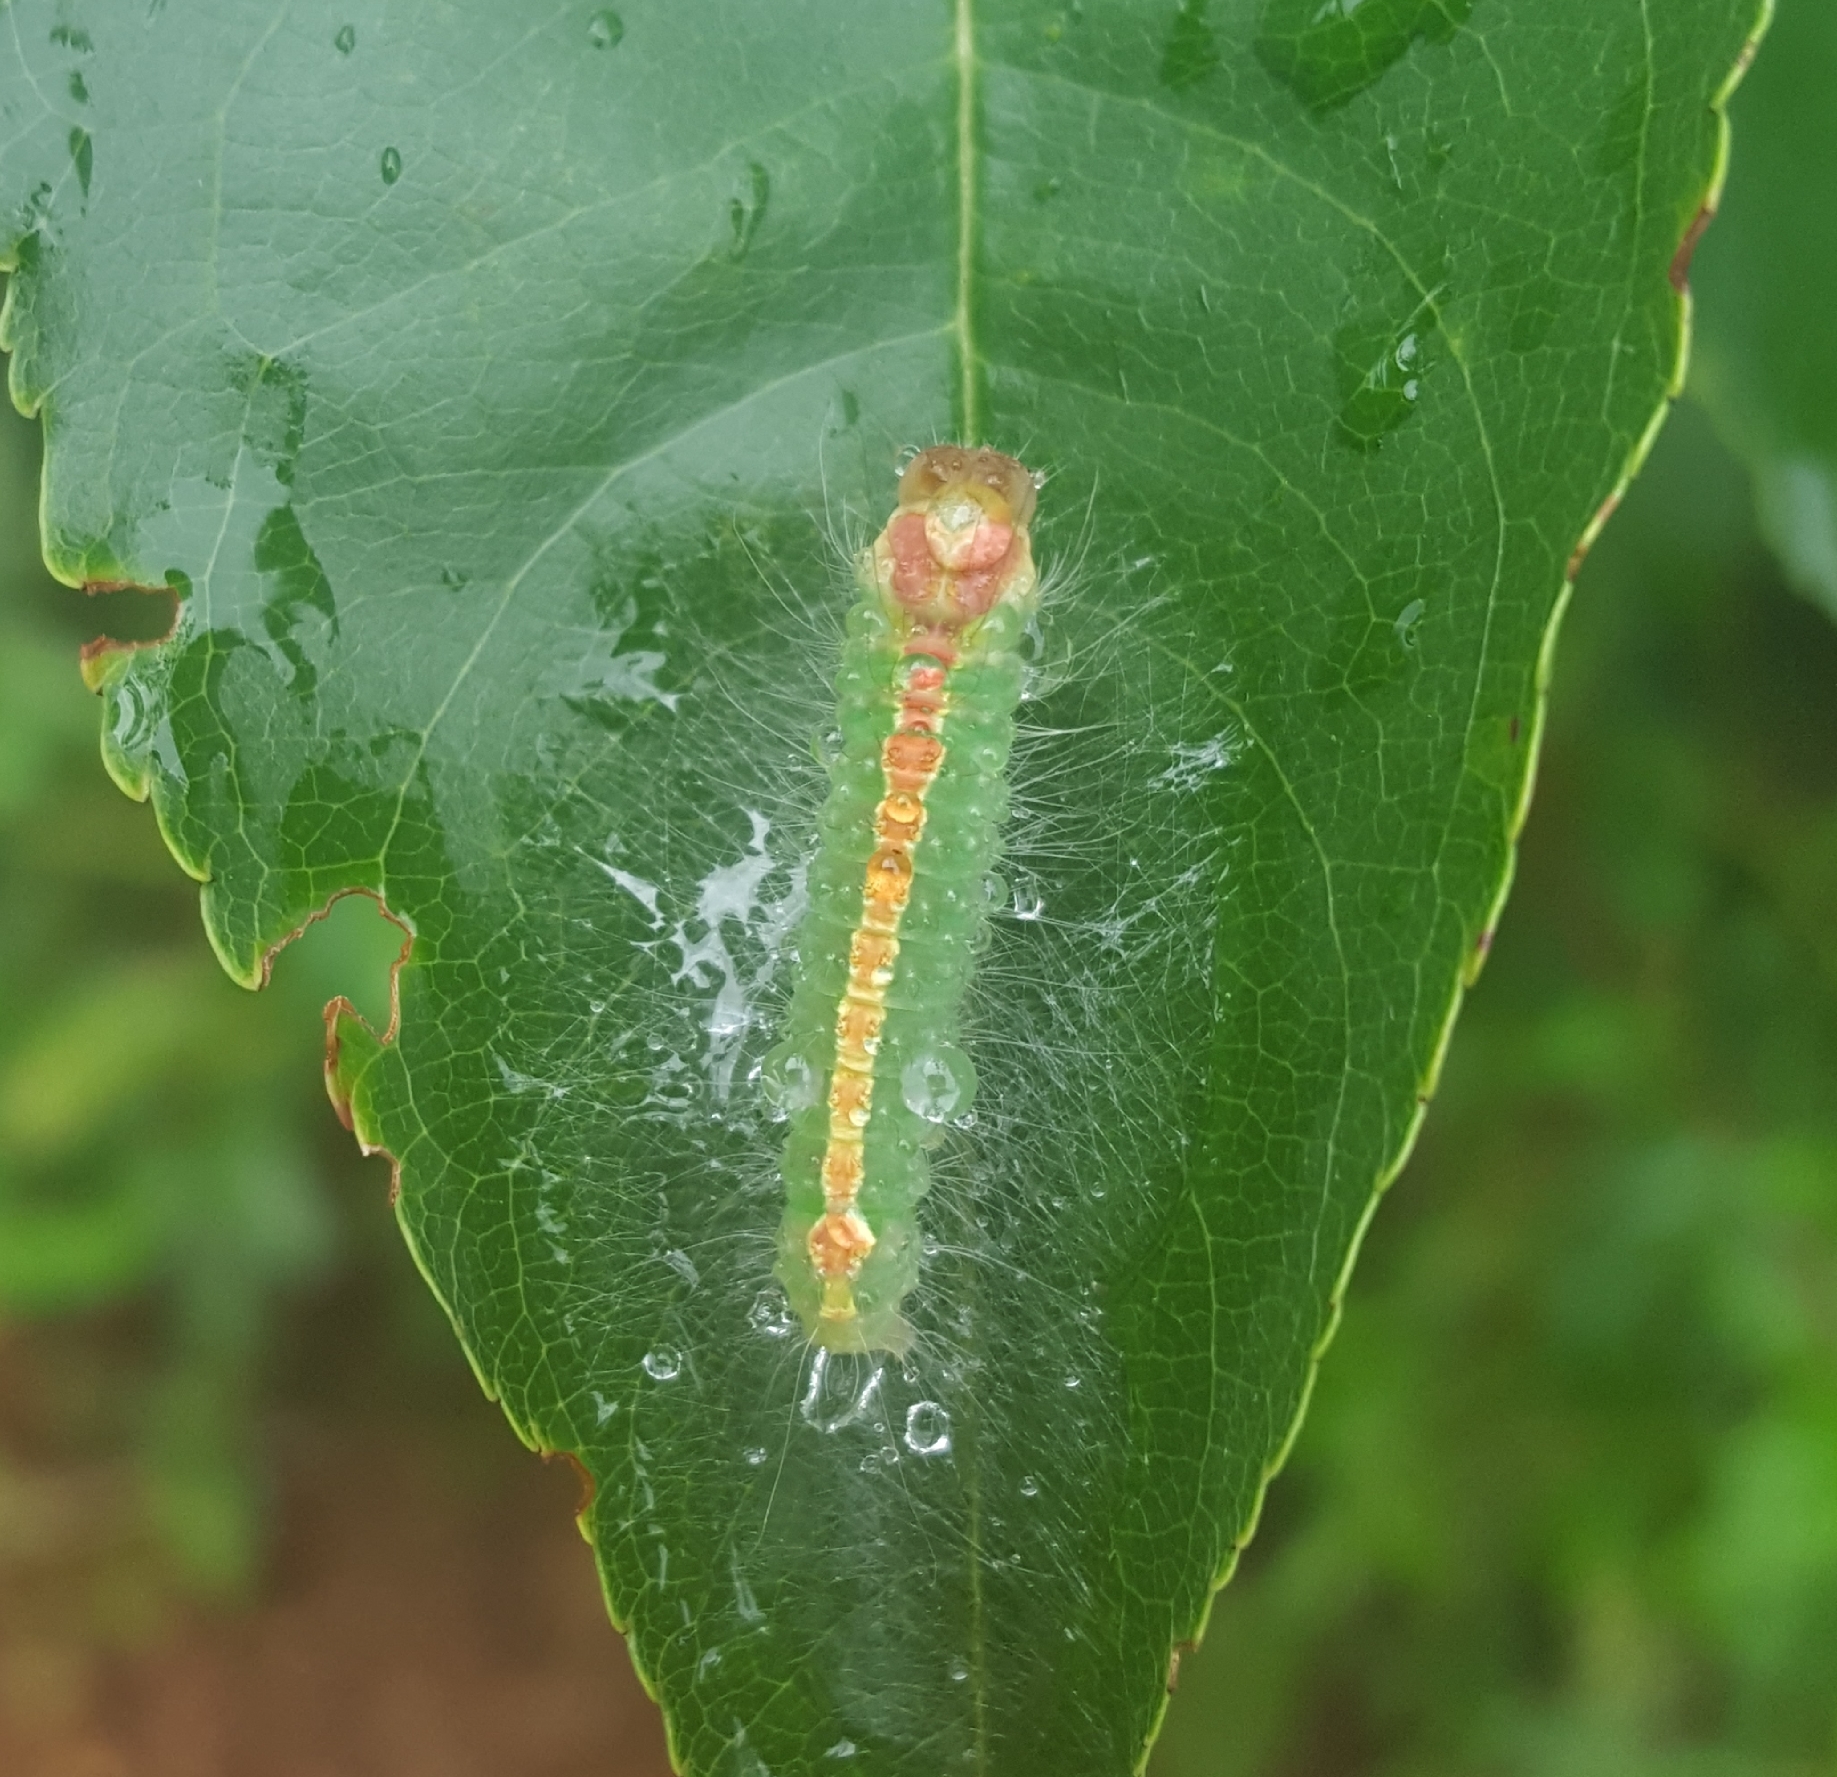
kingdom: Animalia
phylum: Arthropoda
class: Insecta
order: Lepidoptera
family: Noctuidae
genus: Acronicta
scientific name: Acronicta hasta
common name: Cherry dagger
